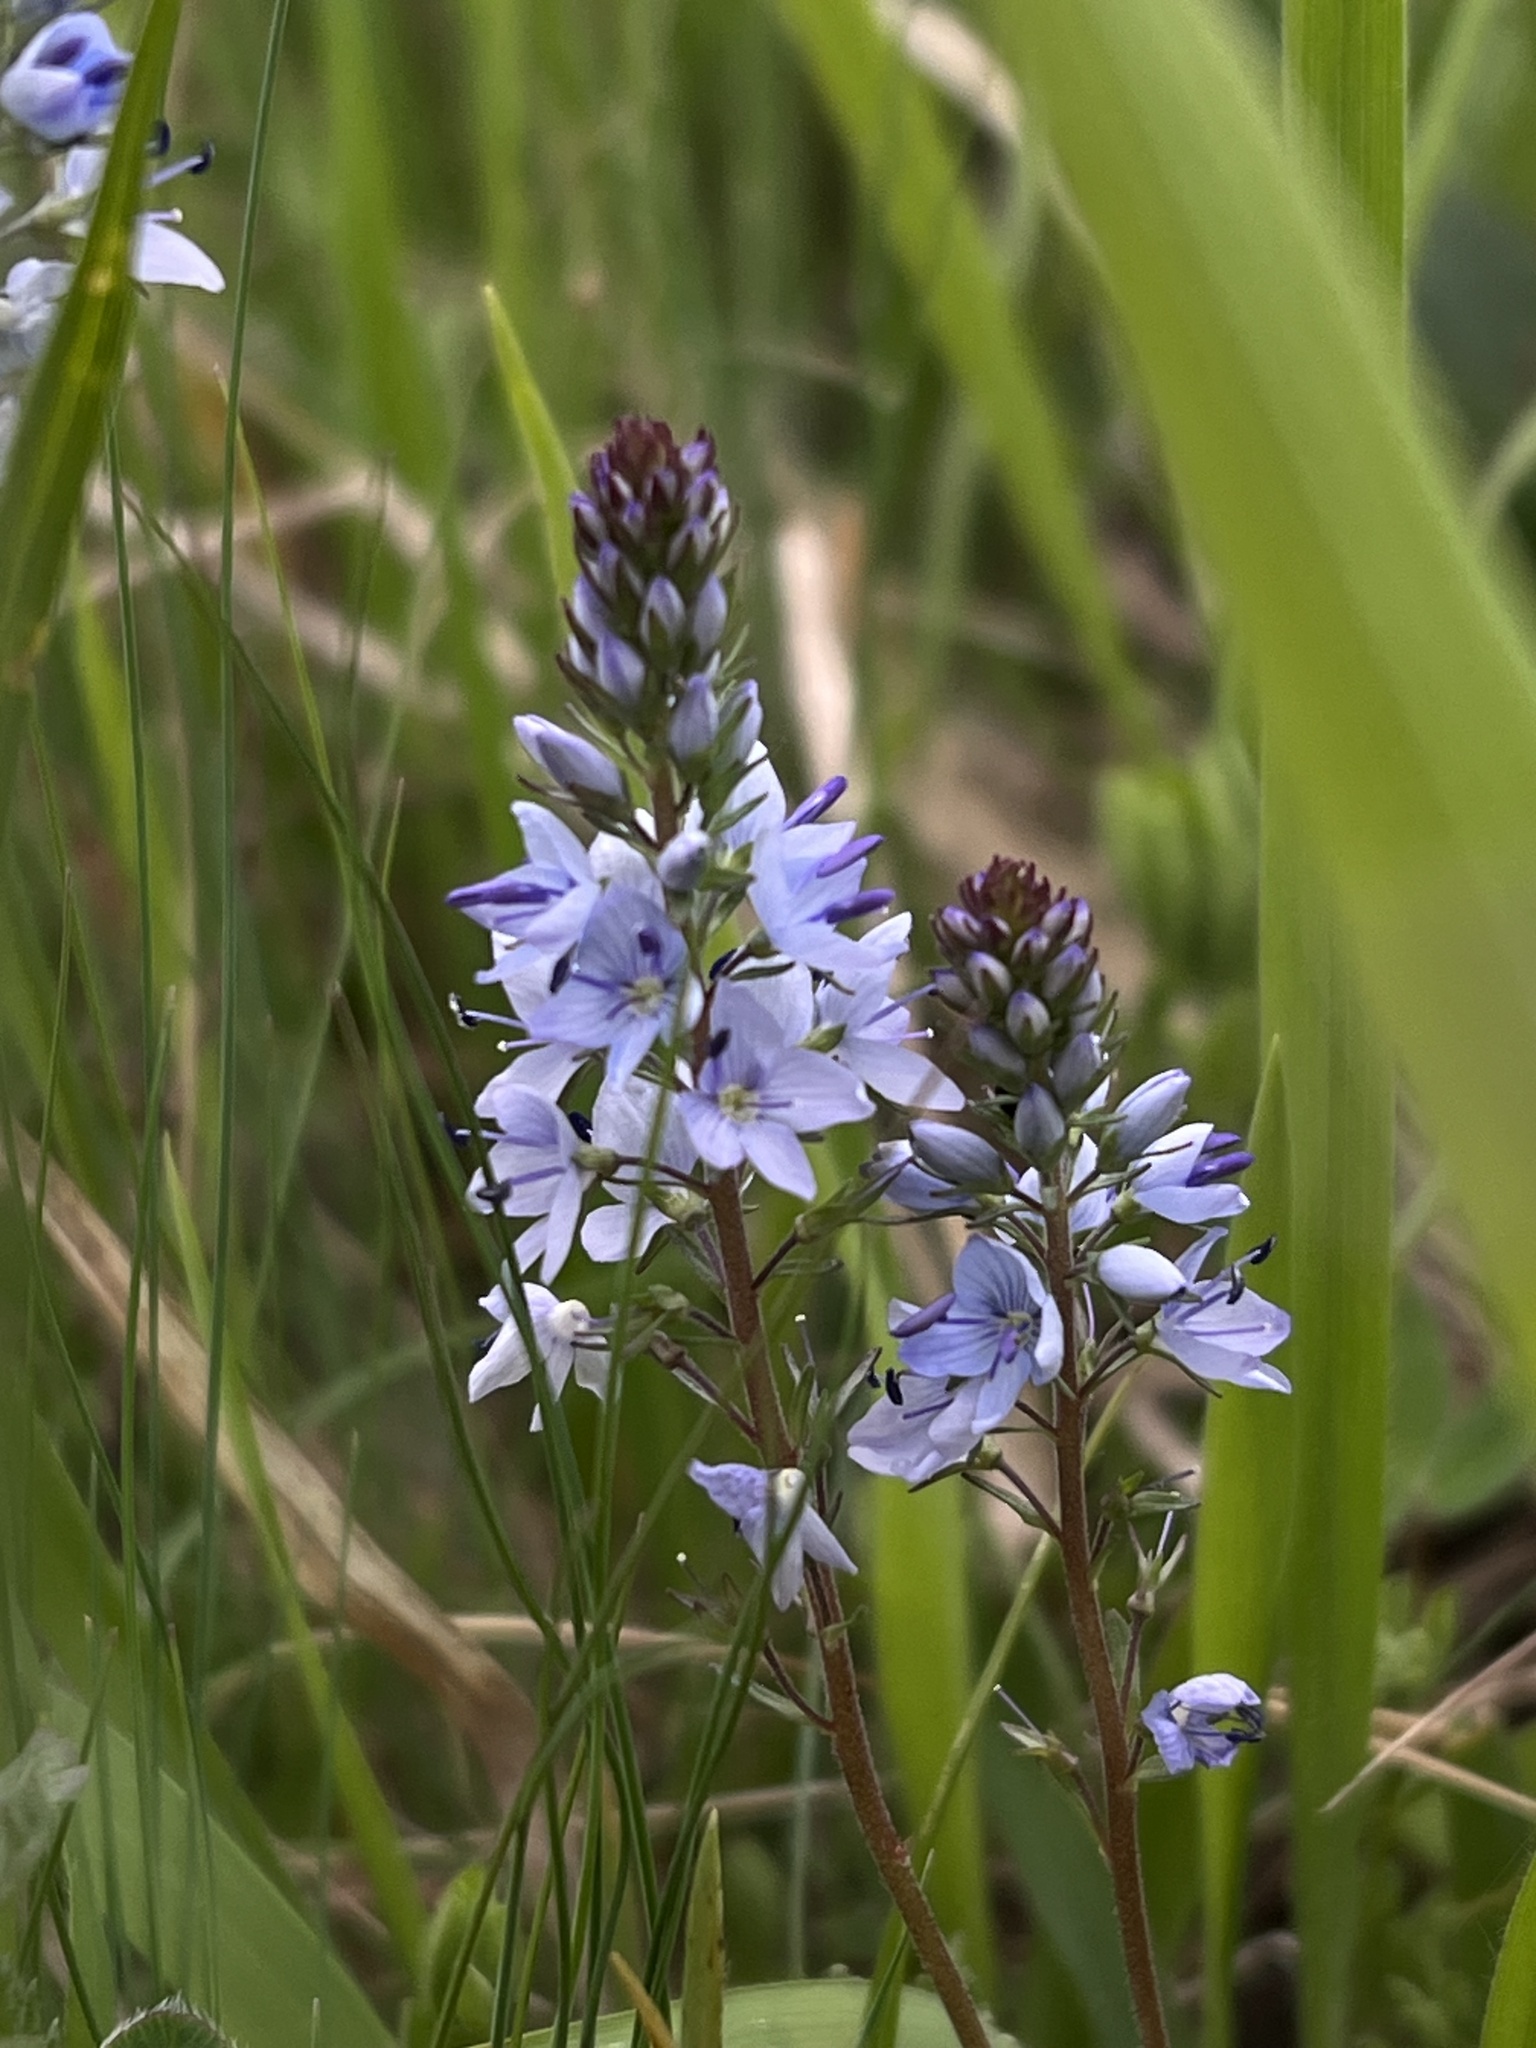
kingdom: Plantae
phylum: Tracheophyta
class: Magnoliopsida
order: Lamiales
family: Plantaginaceae
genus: Veronica
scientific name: Veronica prostrata
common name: Prostrate speedwell
